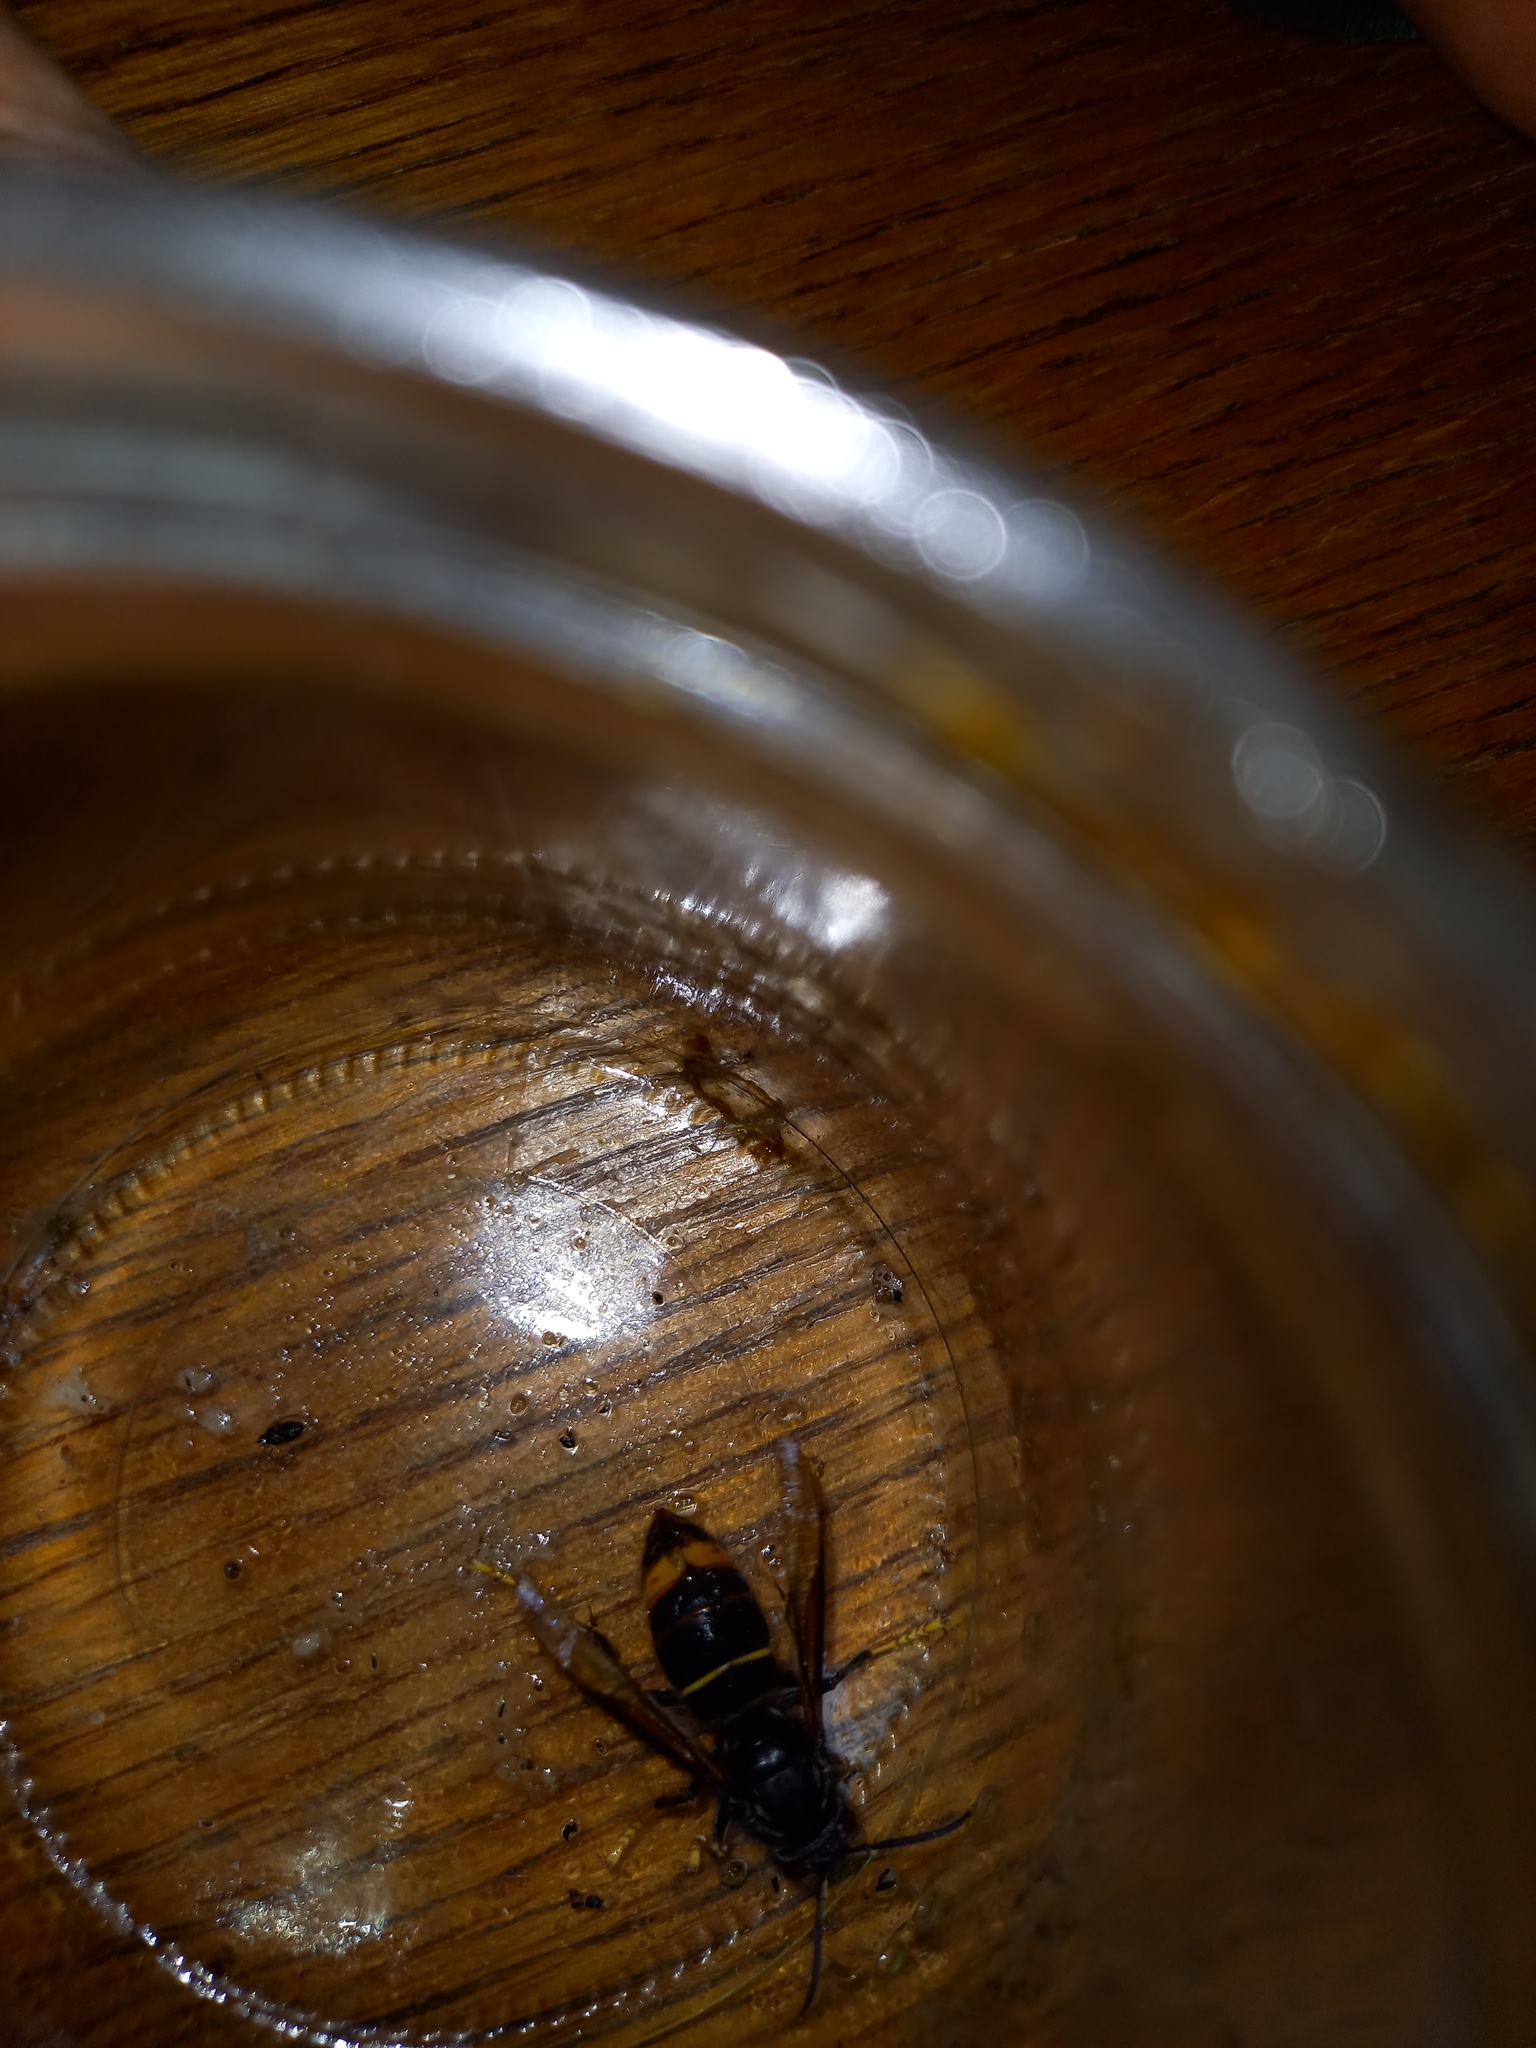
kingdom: Animalia
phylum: Arthropoda
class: Insecta
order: Hymenoptera
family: Vespidae
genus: Vespa
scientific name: Vespa velutina
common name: Asian hornet
